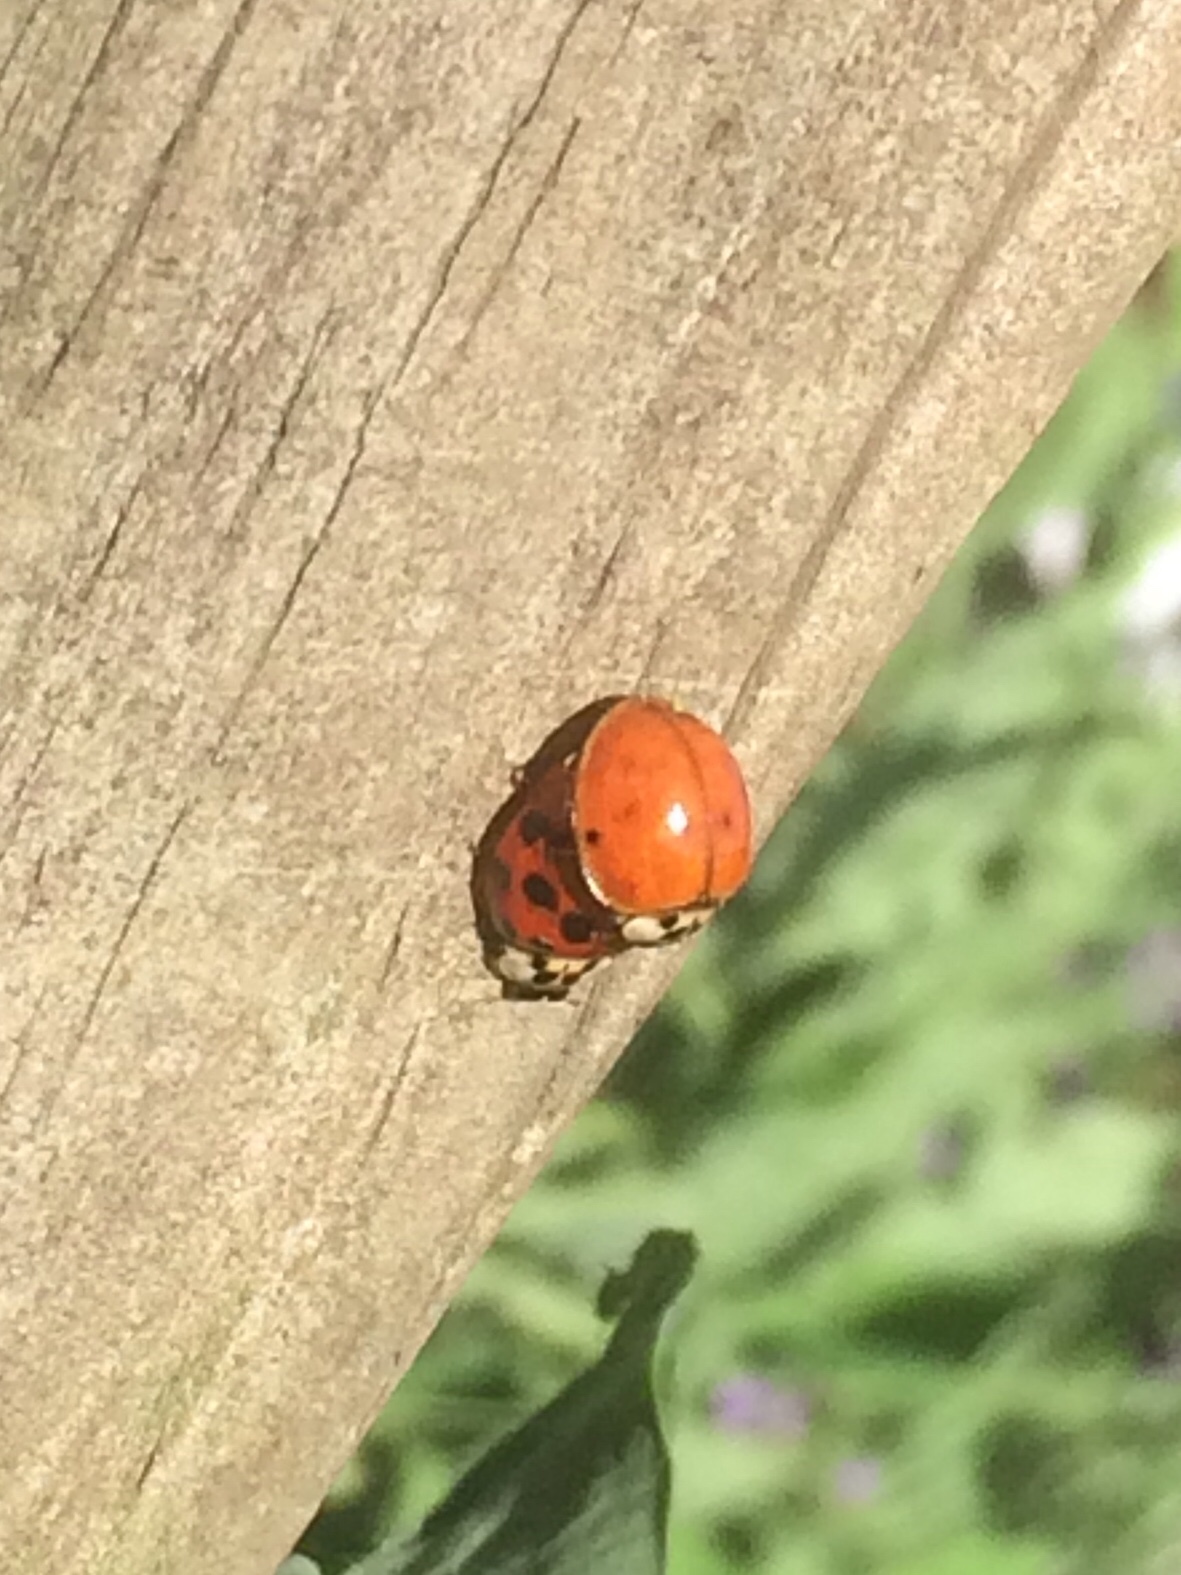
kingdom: Animalia
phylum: Arthropoda
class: Insecta
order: Coleoptera
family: Coccinellidae
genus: Harmonia
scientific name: Harmonia axyridis
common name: Harlequin ladybird
